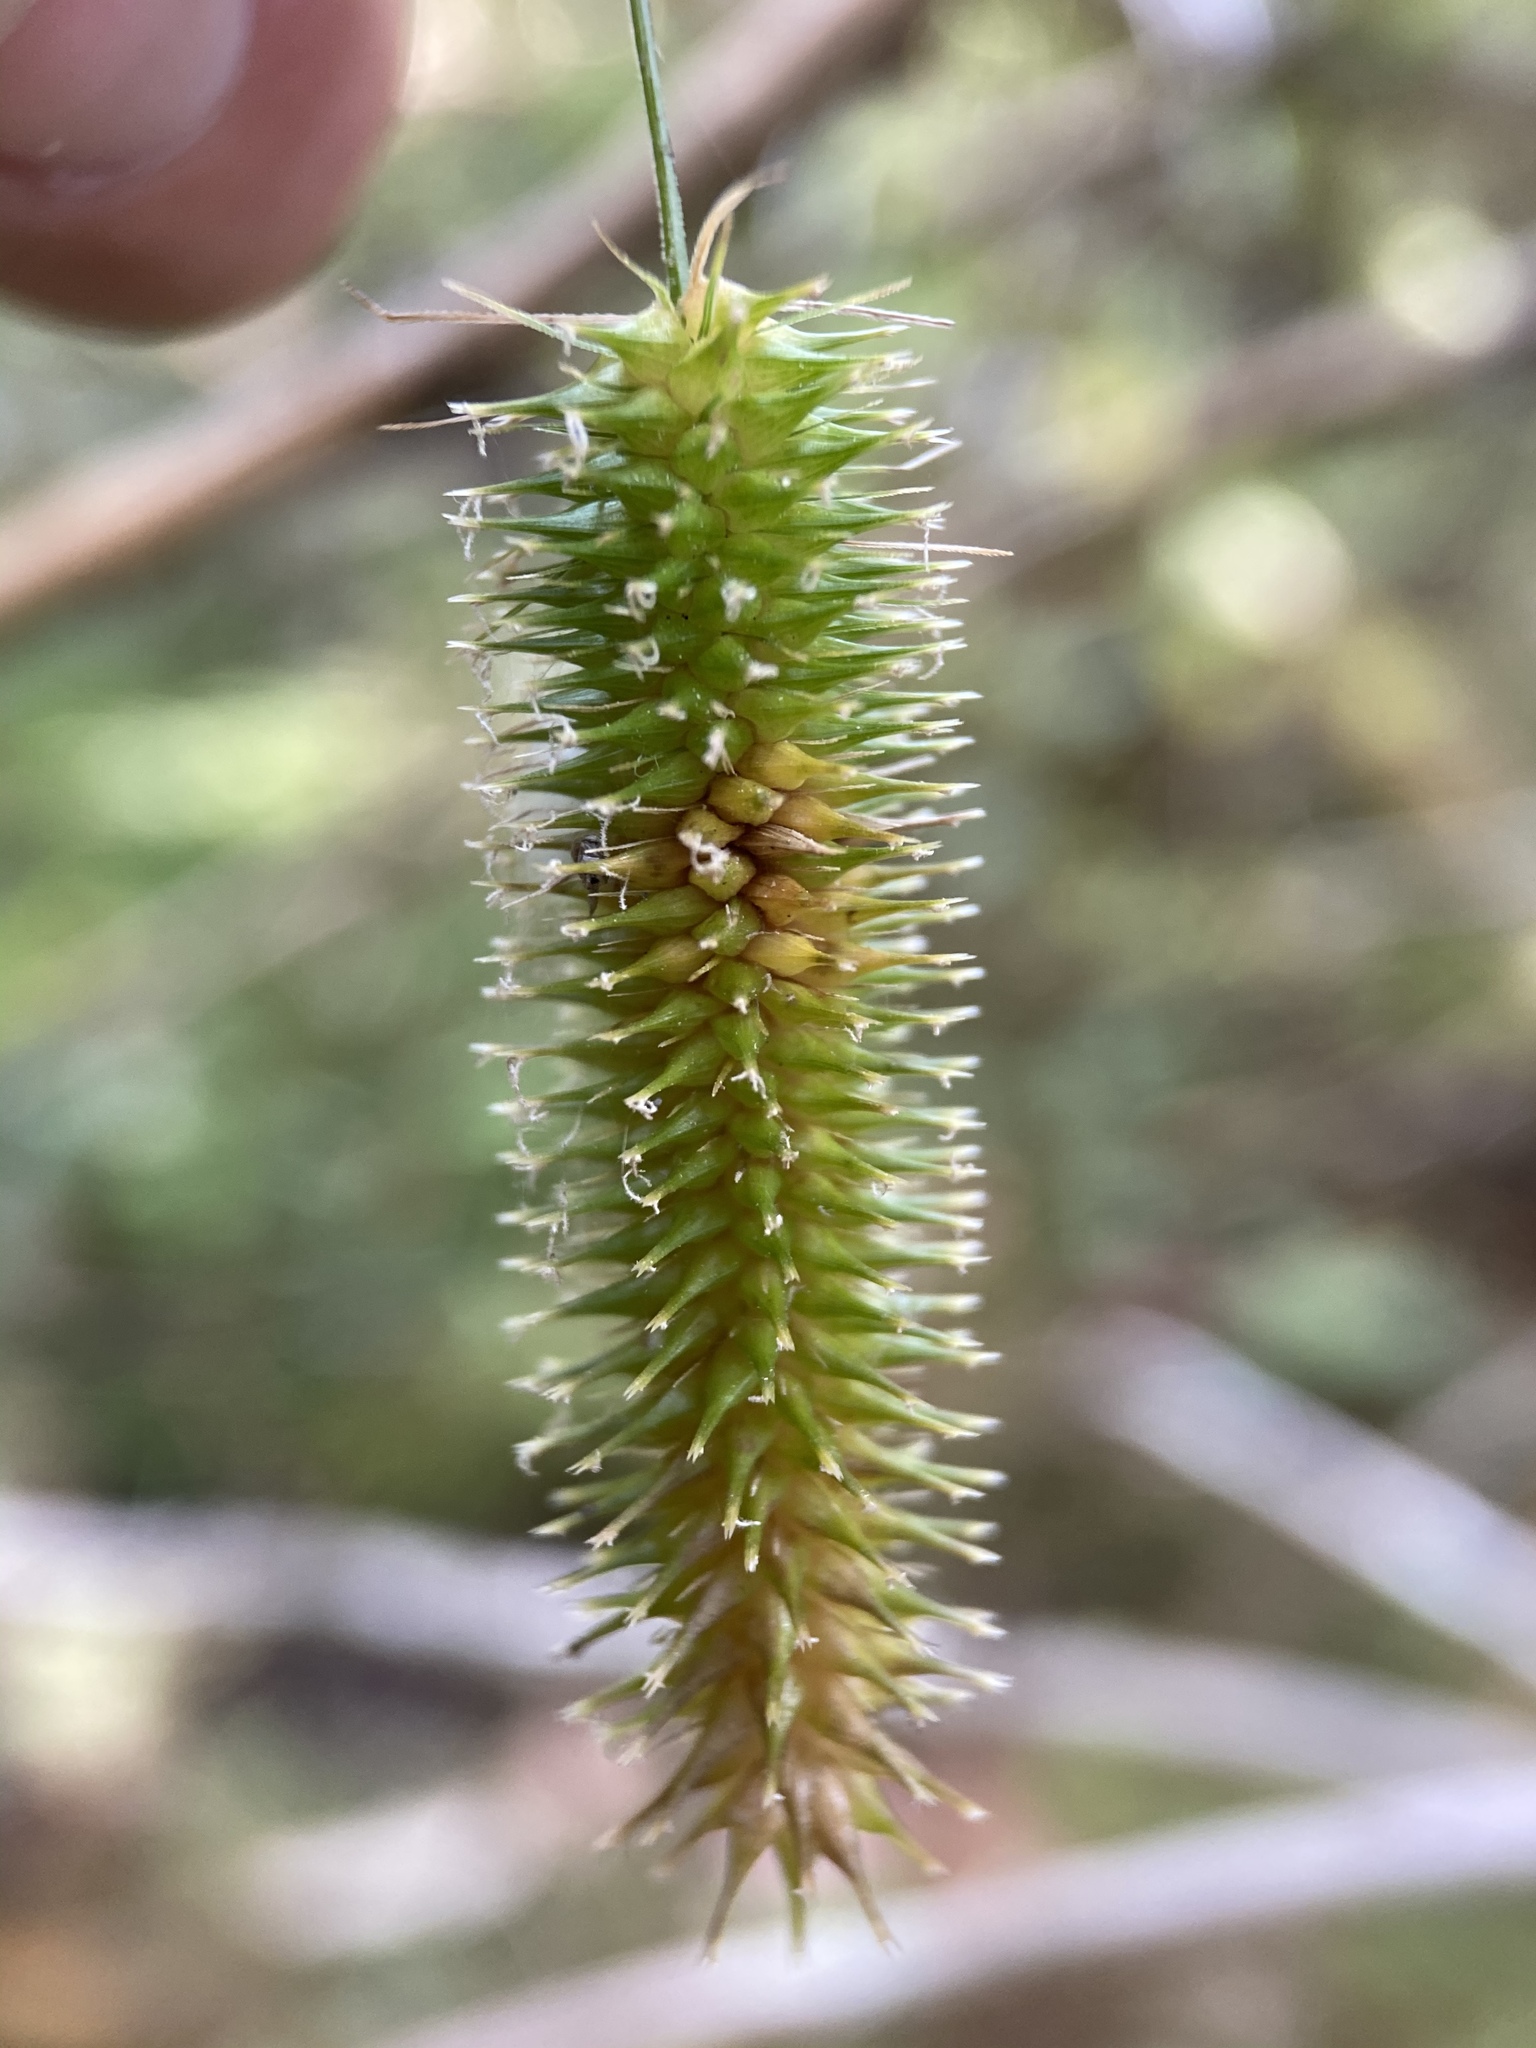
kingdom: Plantae
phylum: Tracheophyta
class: Liliopsida
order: Poales
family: Cyperaceae
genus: Carex
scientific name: Carex pseudocyperus
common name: Cyperus sedge
